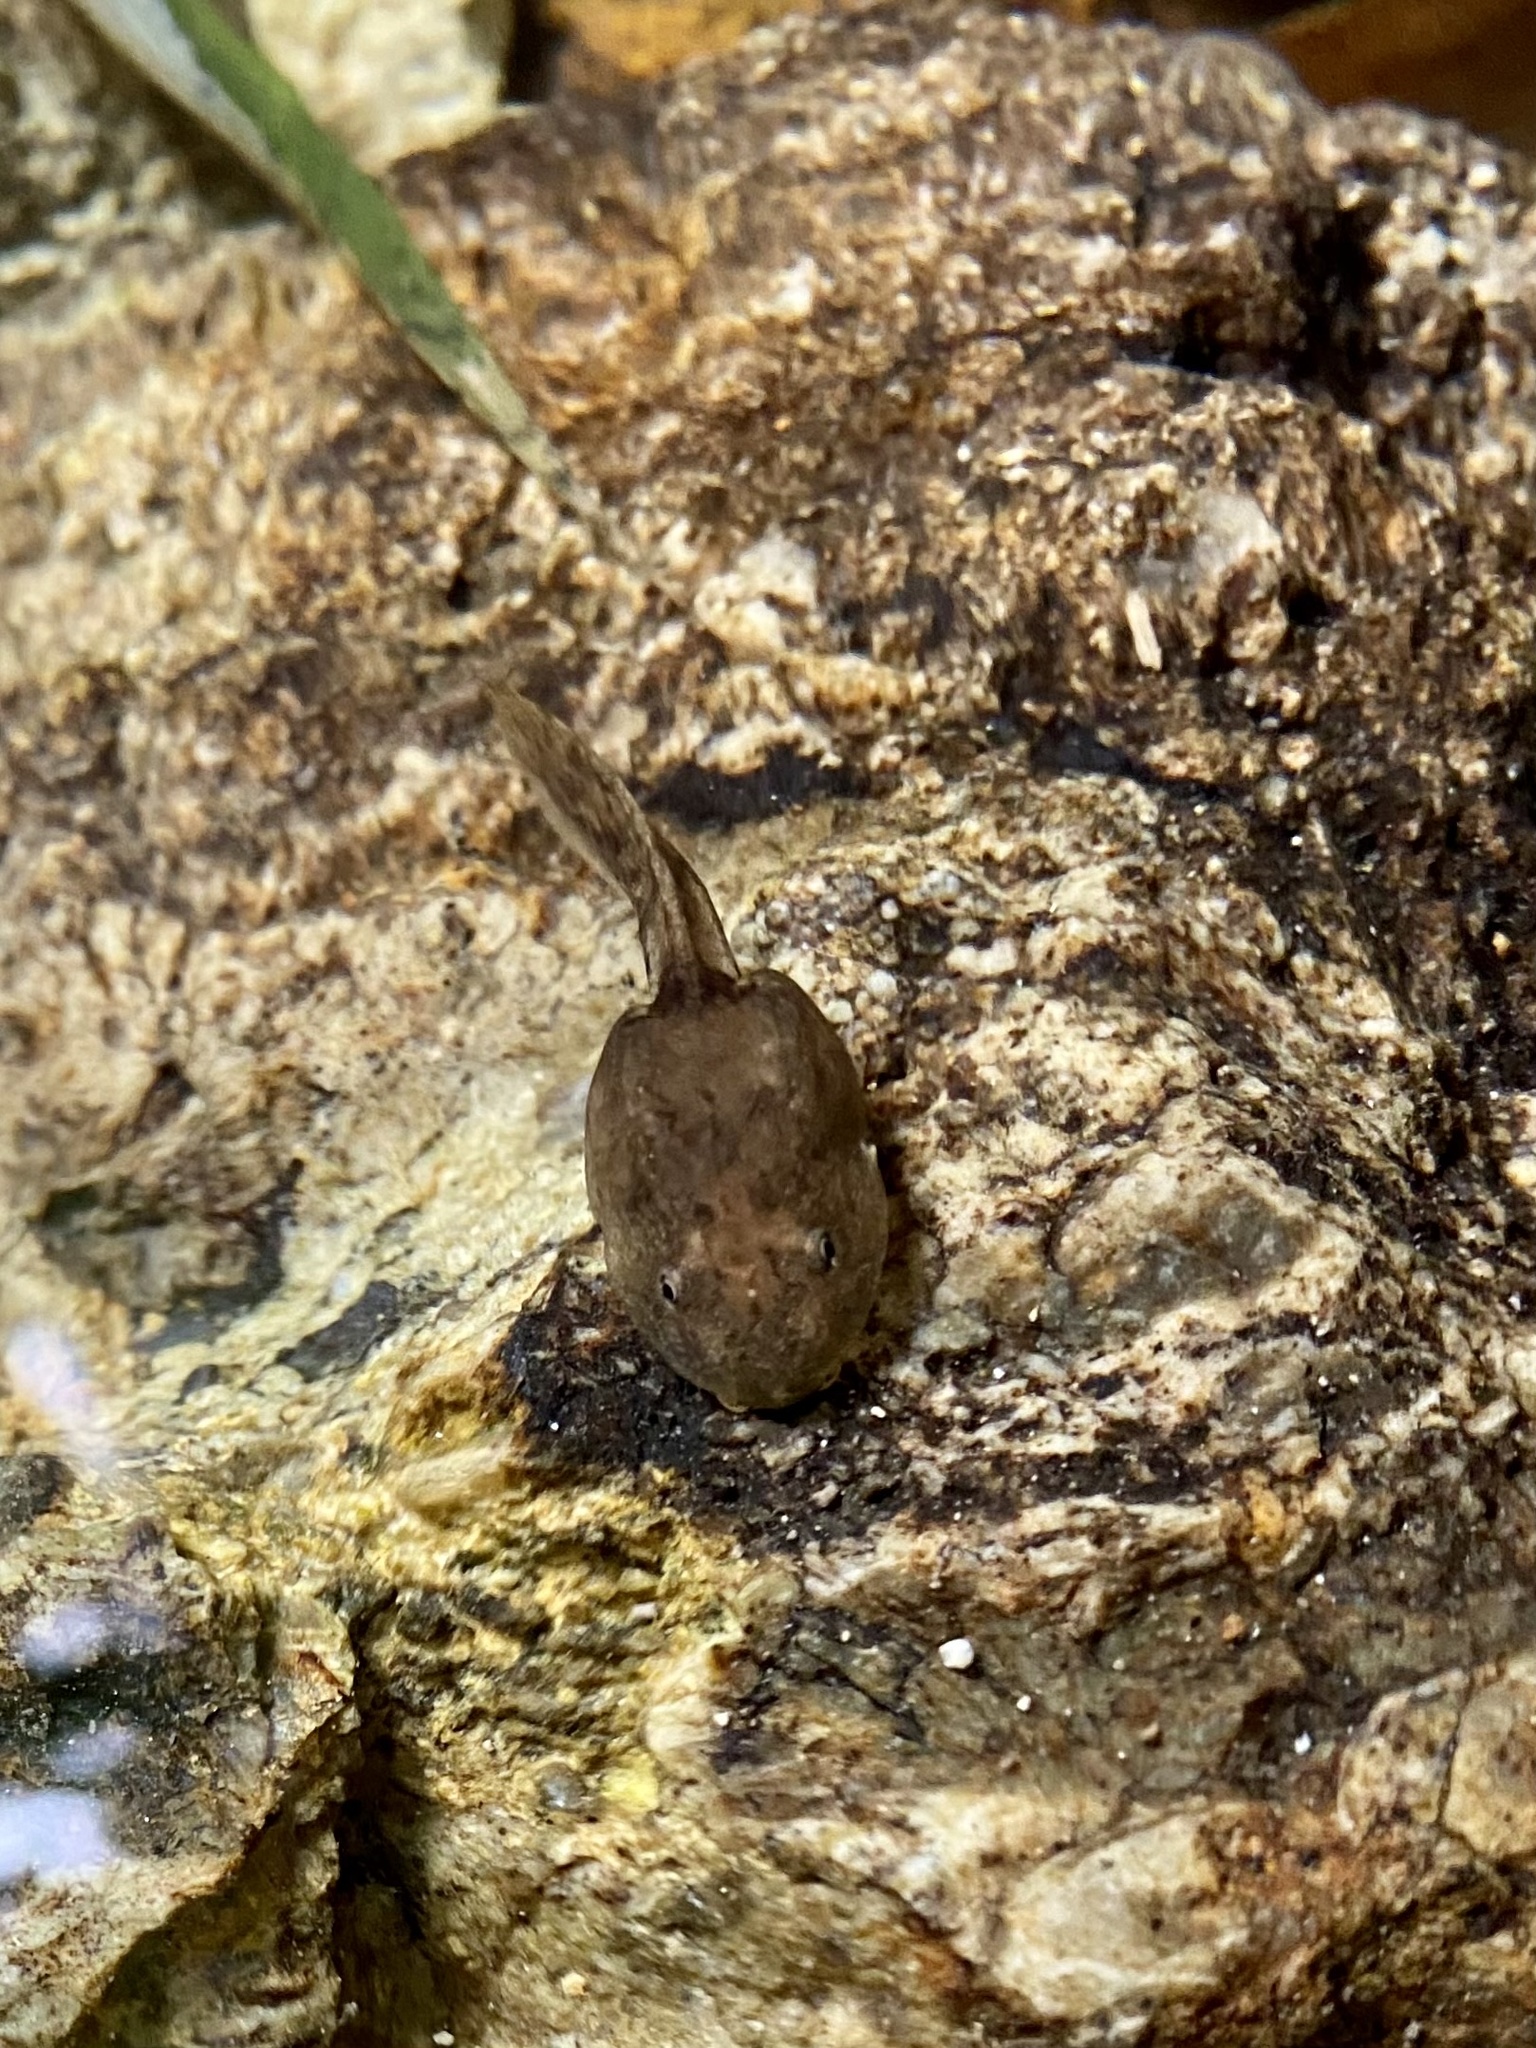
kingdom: Animalia
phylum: Chordata
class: Amphibia
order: Anura
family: Dicroglossidae
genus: Quasipaa
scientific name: Quasipaa exilispinosa
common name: Hong kong paa frog
